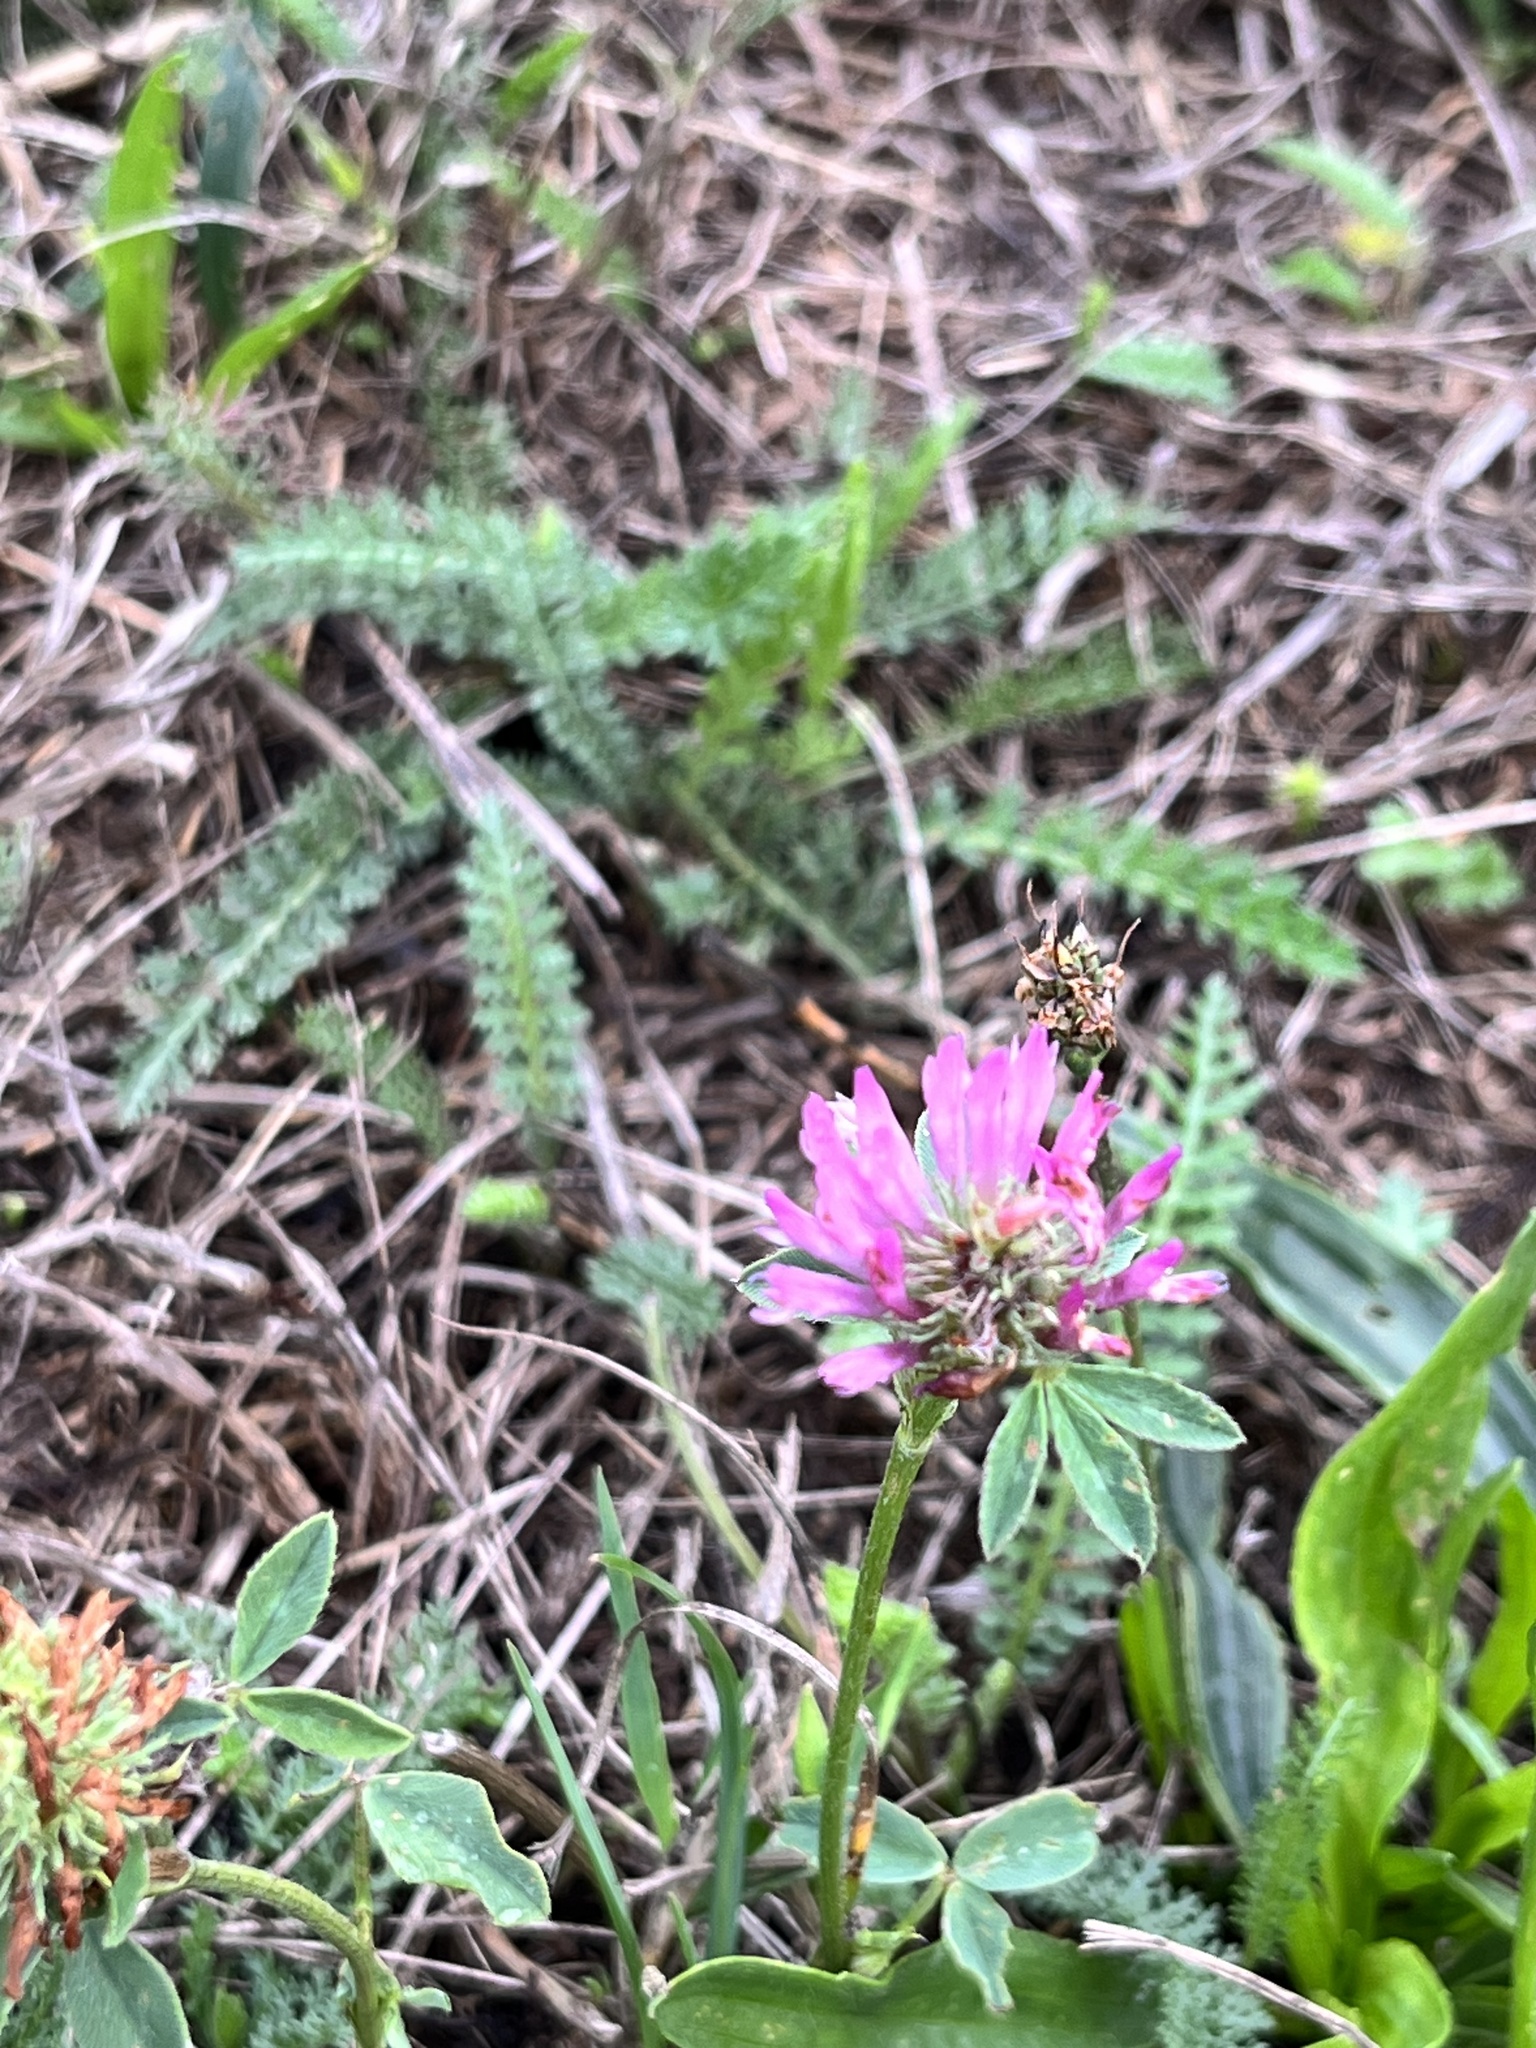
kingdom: Plantae
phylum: Tracheophyta
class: Magnoliopsida
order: Fabales
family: Fabaceae
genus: Trifolium
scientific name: Trifolium pratense
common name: Red clover
